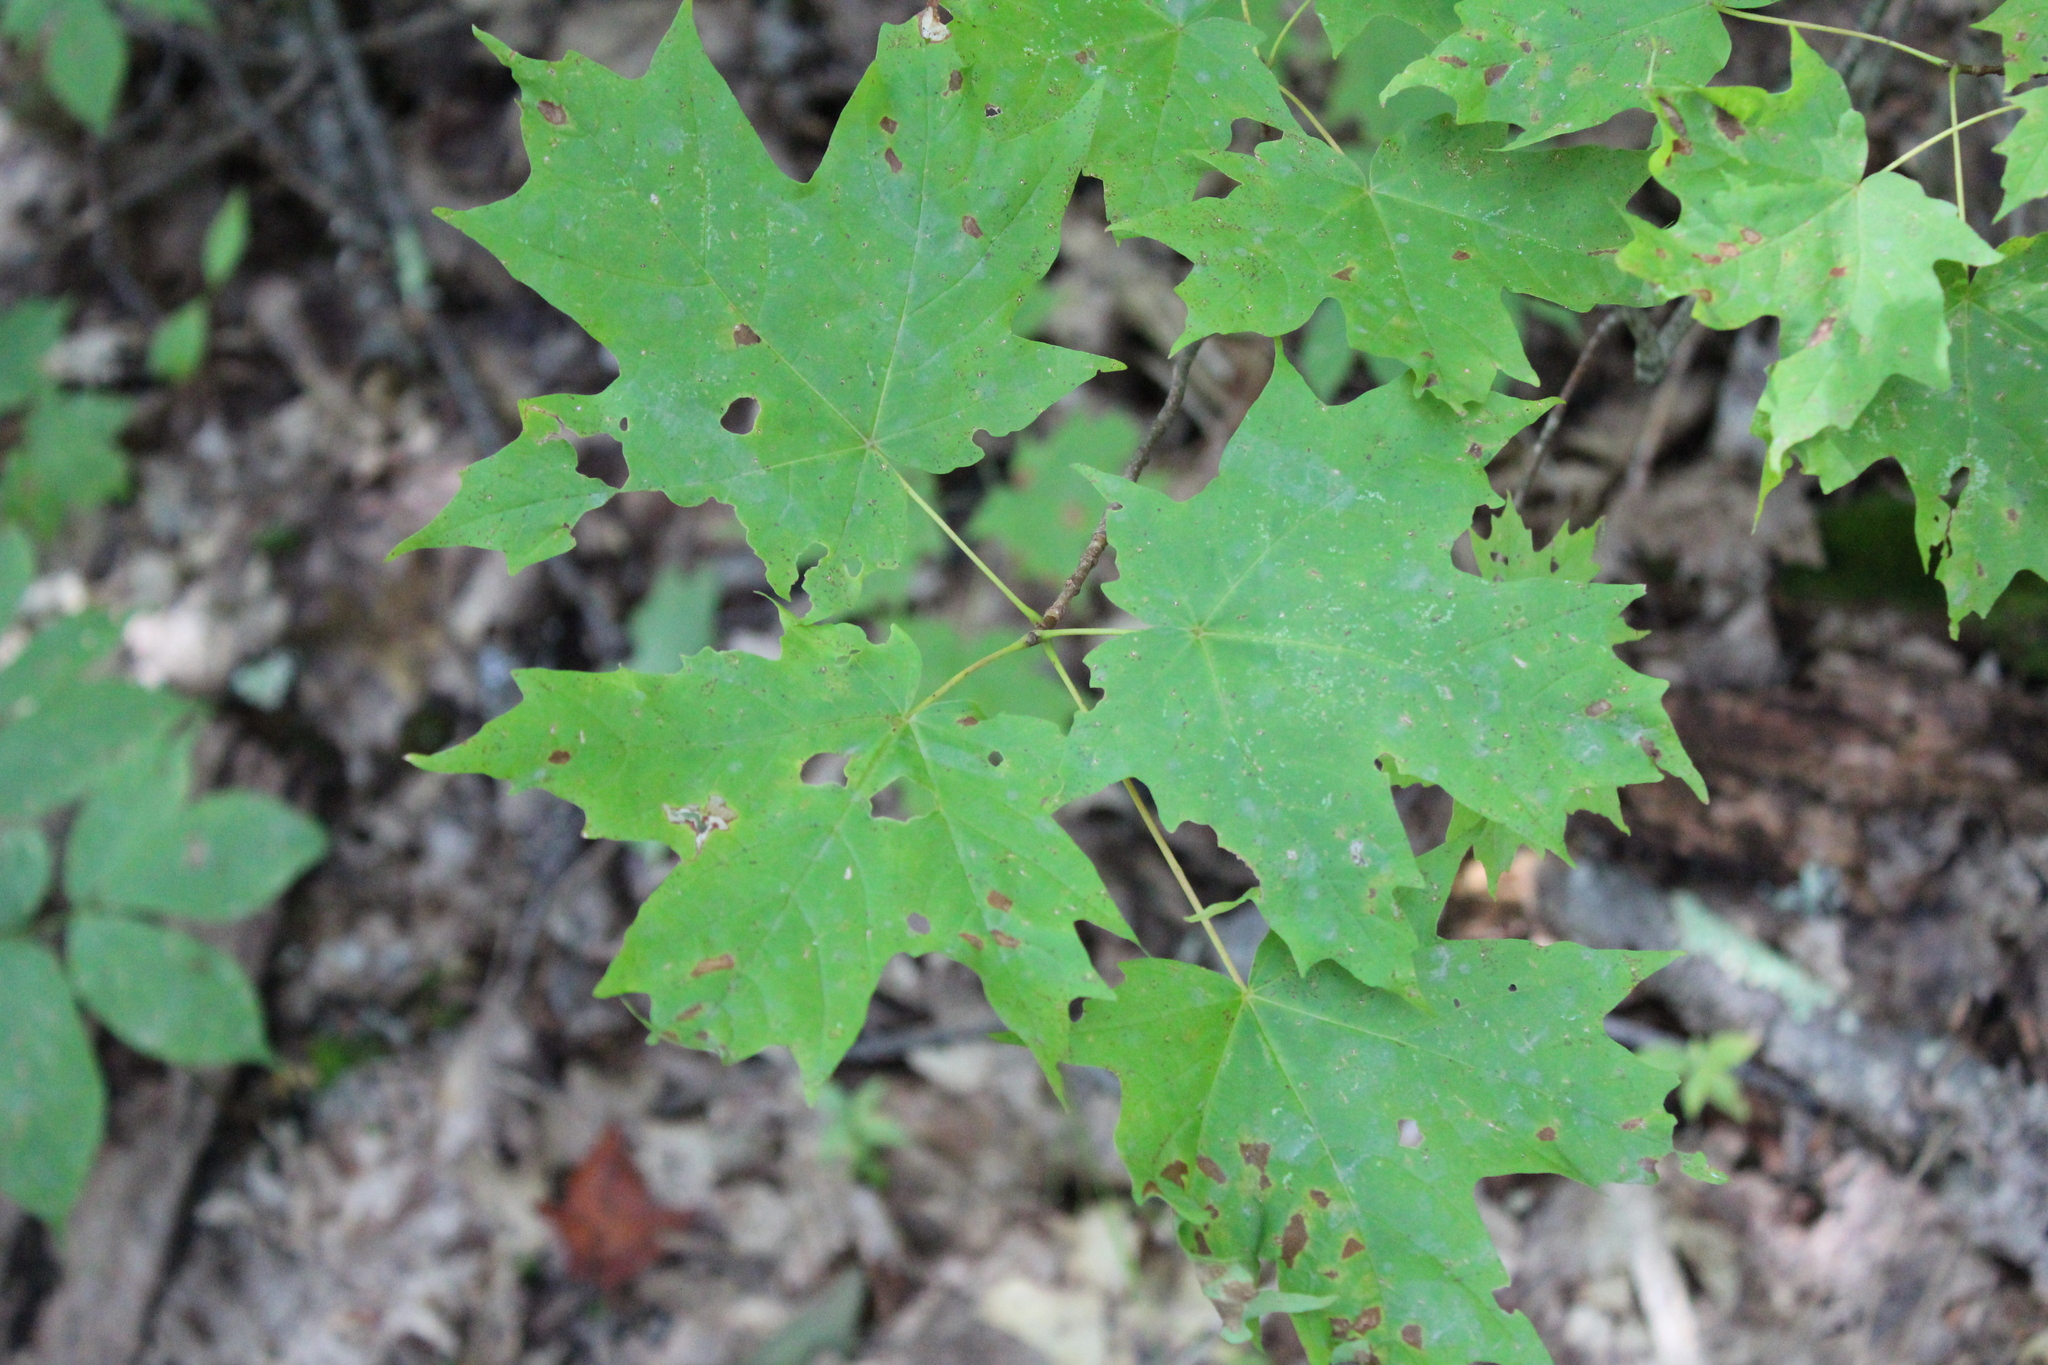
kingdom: Plantae
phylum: Tracheophyta
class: Magnoliopsida
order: Sapindales
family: Sapindaceae
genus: Acer
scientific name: Acer saccharum
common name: Sugar maple
